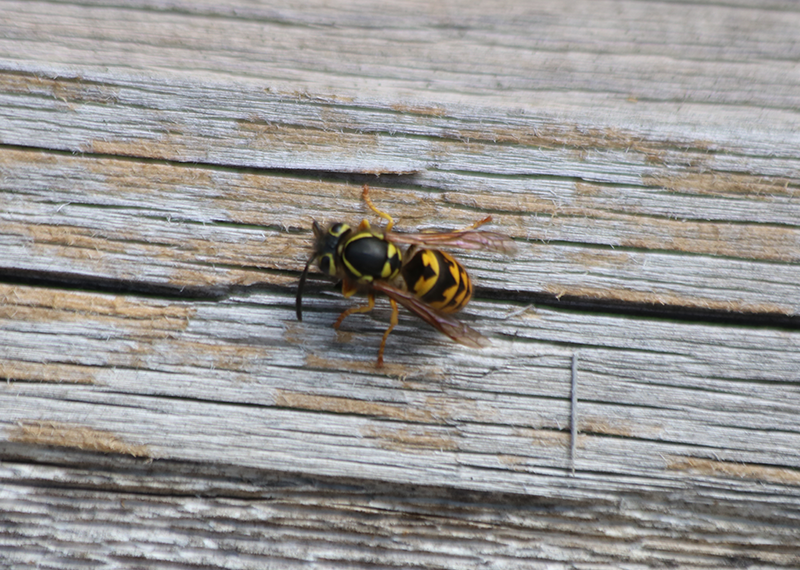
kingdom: Animalia
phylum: Arthropoda
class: Insecta
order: Hymenoptera
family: Vespidae
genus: Vespula
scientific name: Vespula pensylvanica
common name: Western yellowjacket
